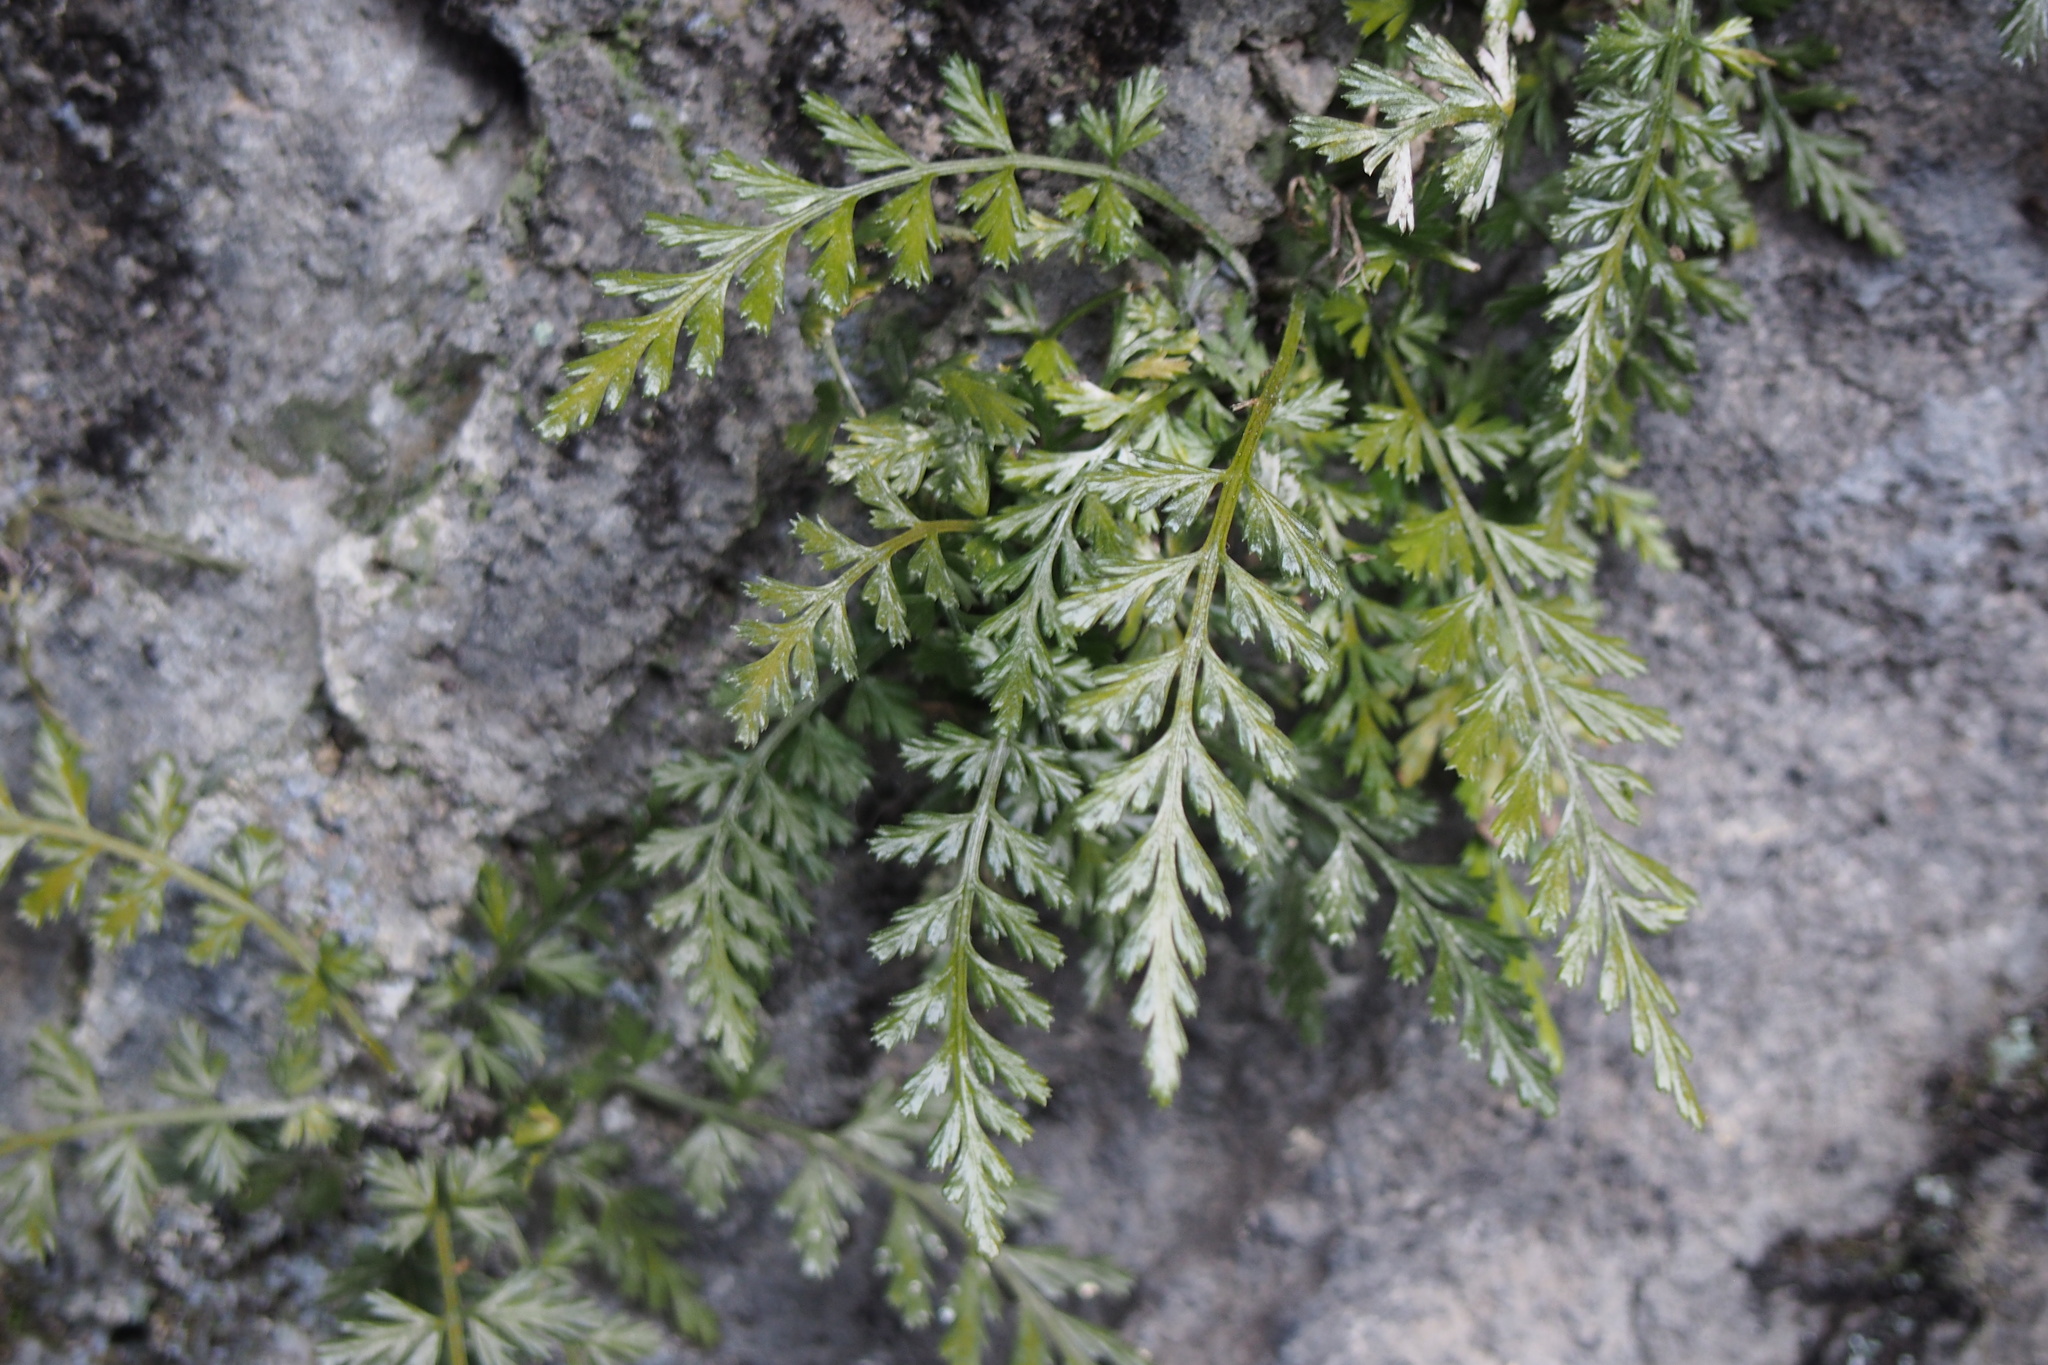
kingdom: Plantae
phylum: Tracheophyta
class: Polypodiopsida
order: Polypodiales
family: Aspleniaceae
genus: Asplenium
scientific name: Asplenium sarelii
